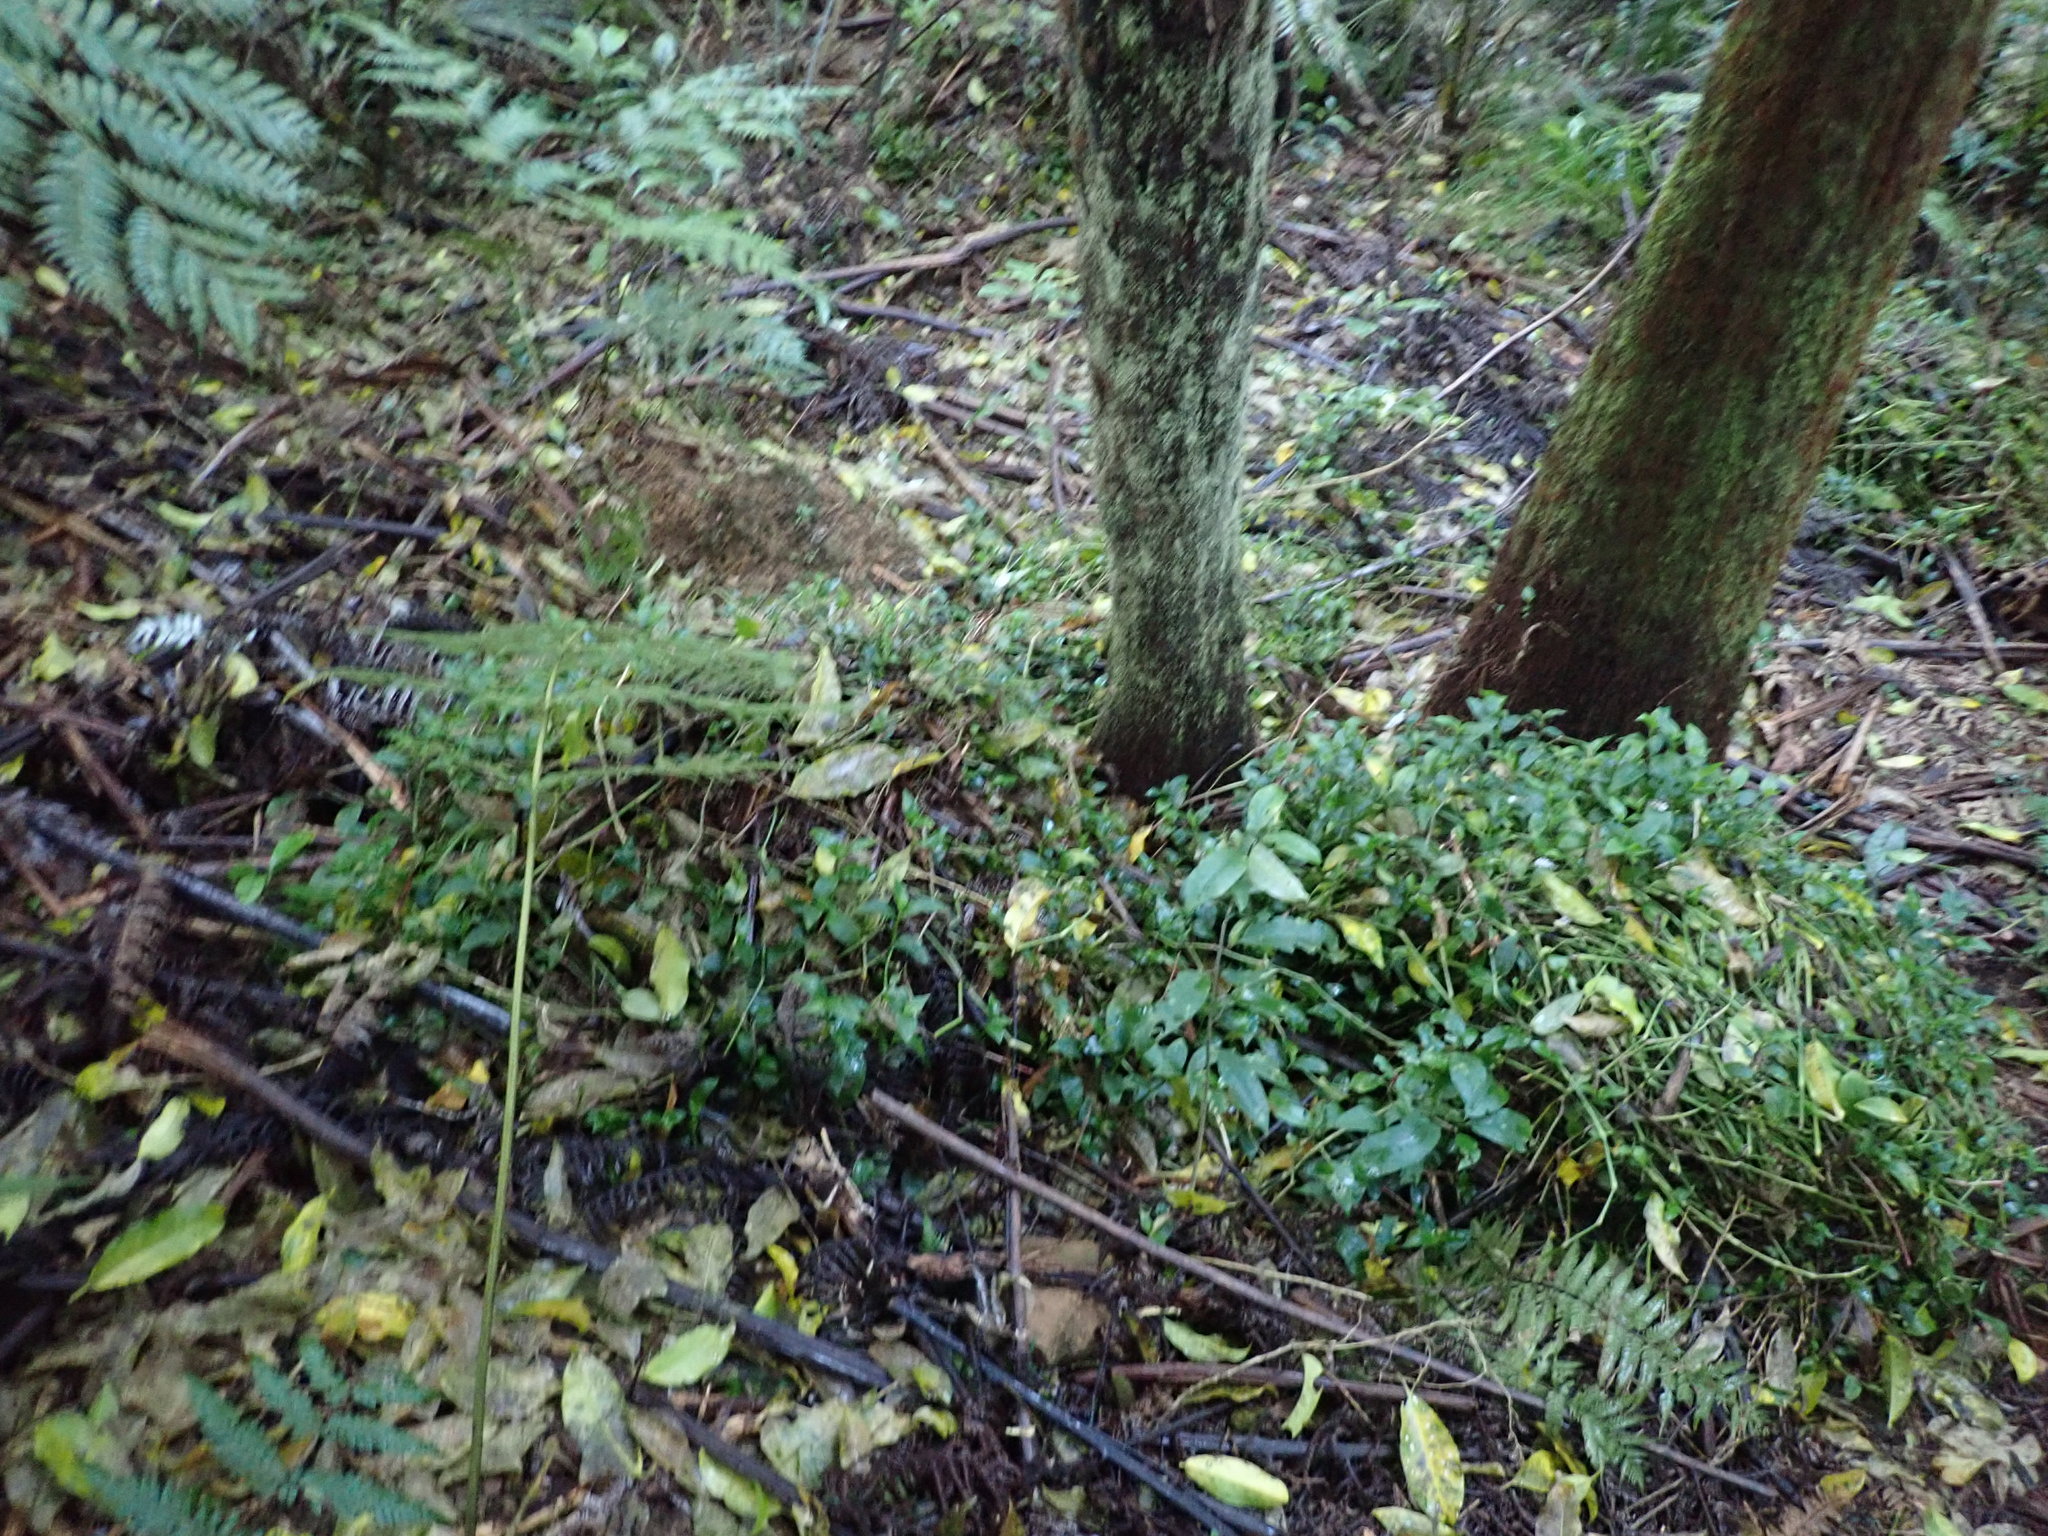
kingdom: Plantae
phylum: Tracheophyta
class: Liliopsida
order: Commelinales
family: Commelinaceae
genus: Tradescantia
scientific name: Tradescantia fluminensis
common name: Wandering-jew
